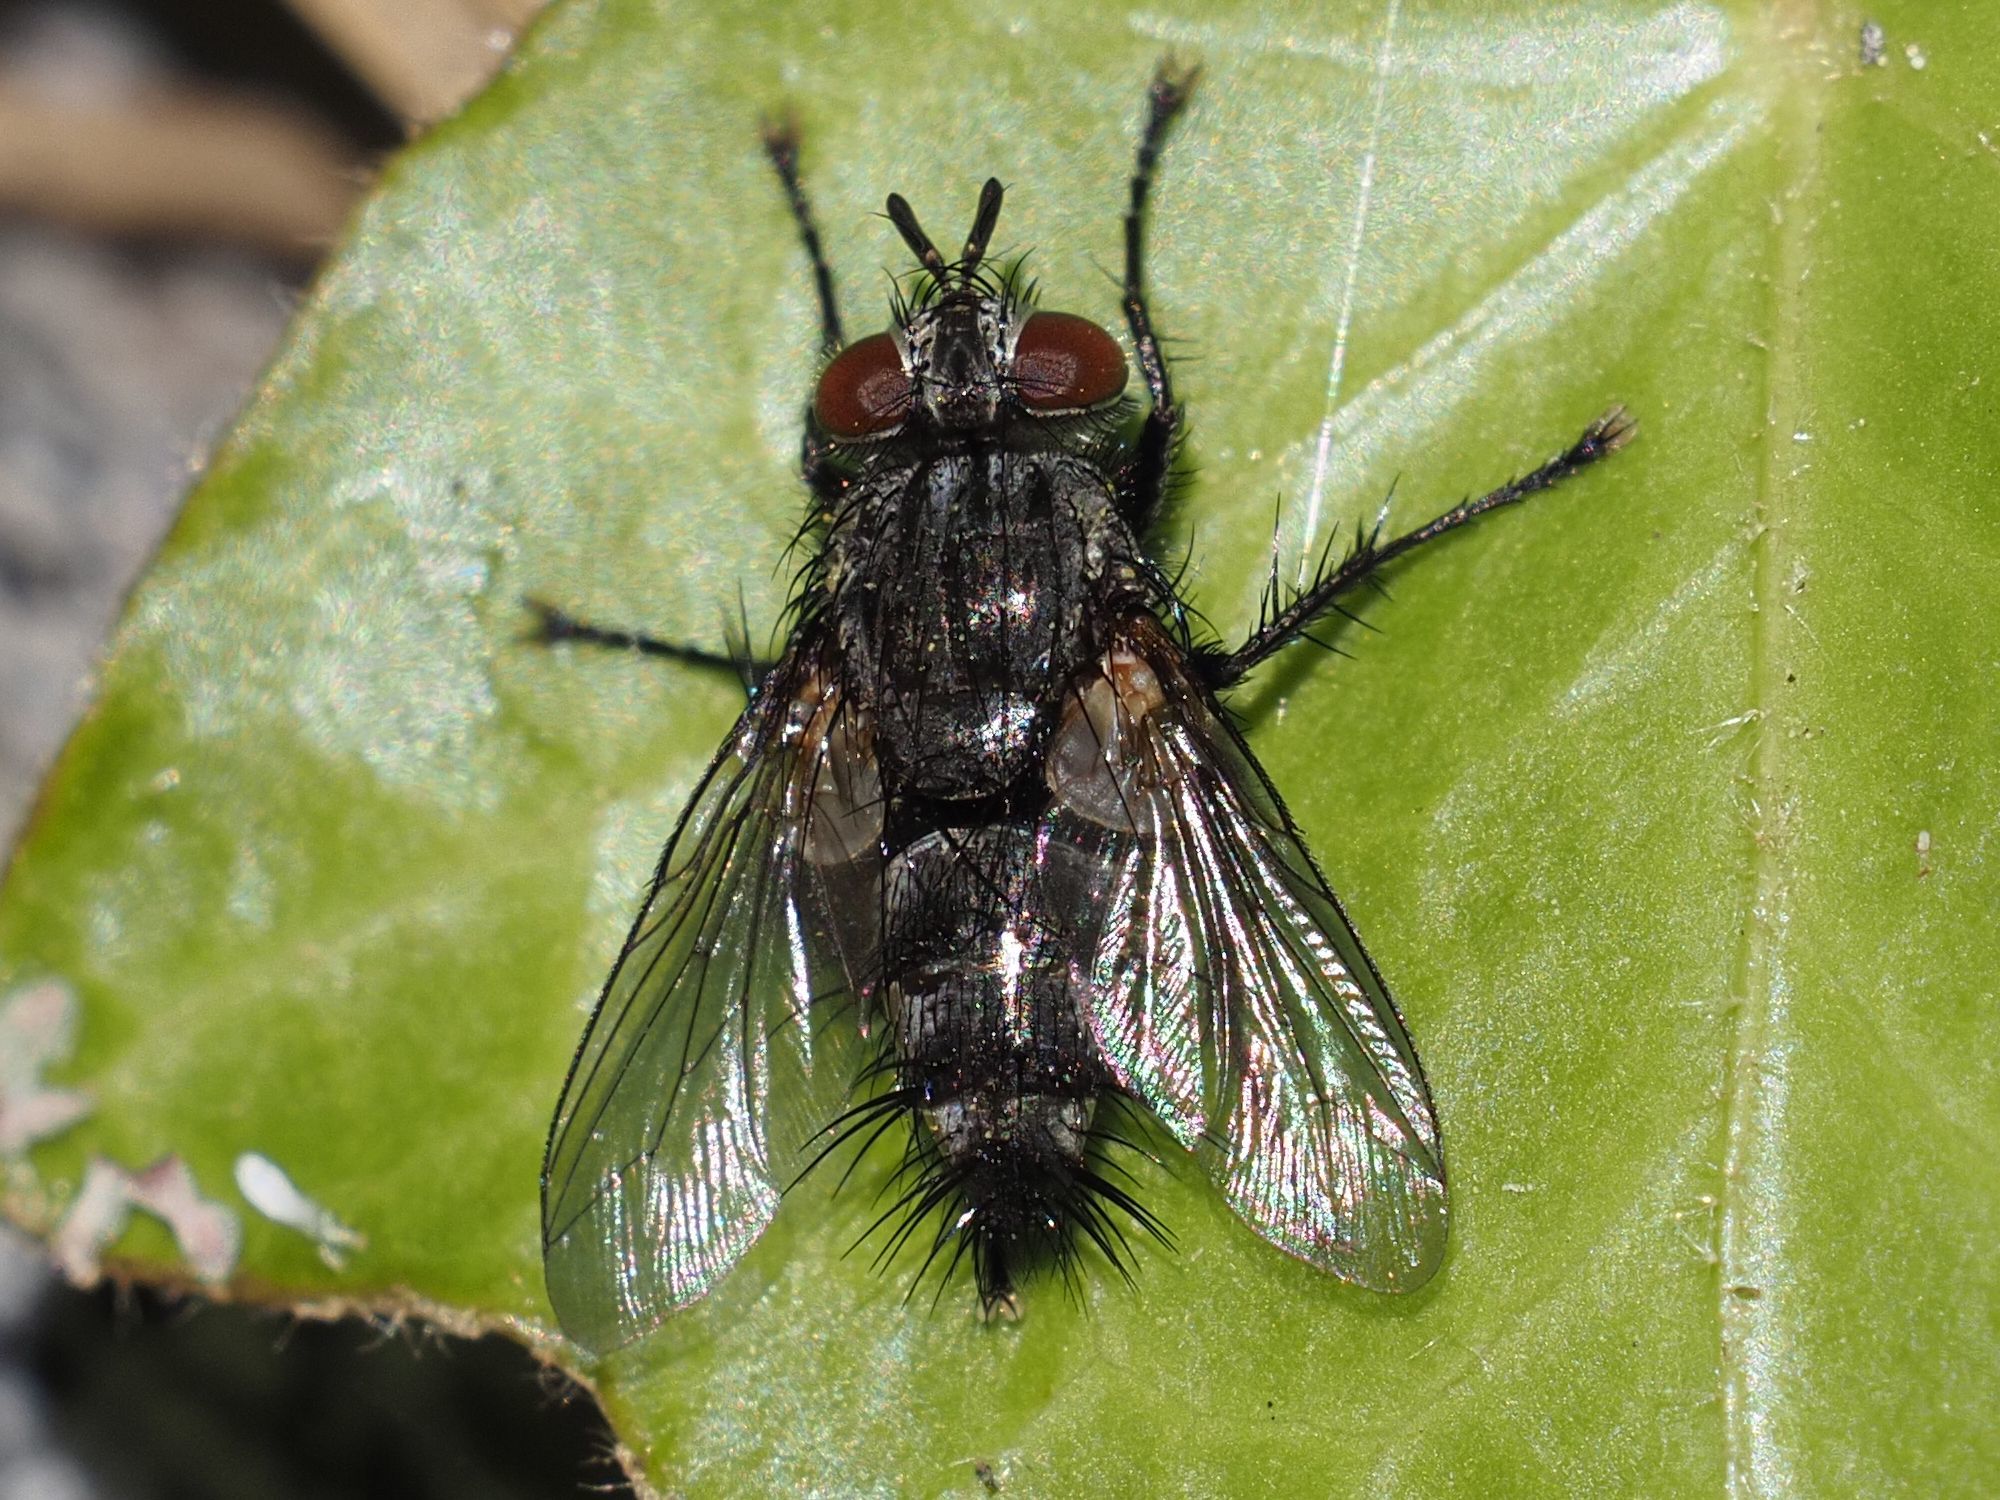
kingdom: Animalia
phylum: Arthropoda
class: Insecta
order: Diptera
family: Tachinidae
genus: Voria
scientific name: Voria ruralis
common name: Parasitic fly
